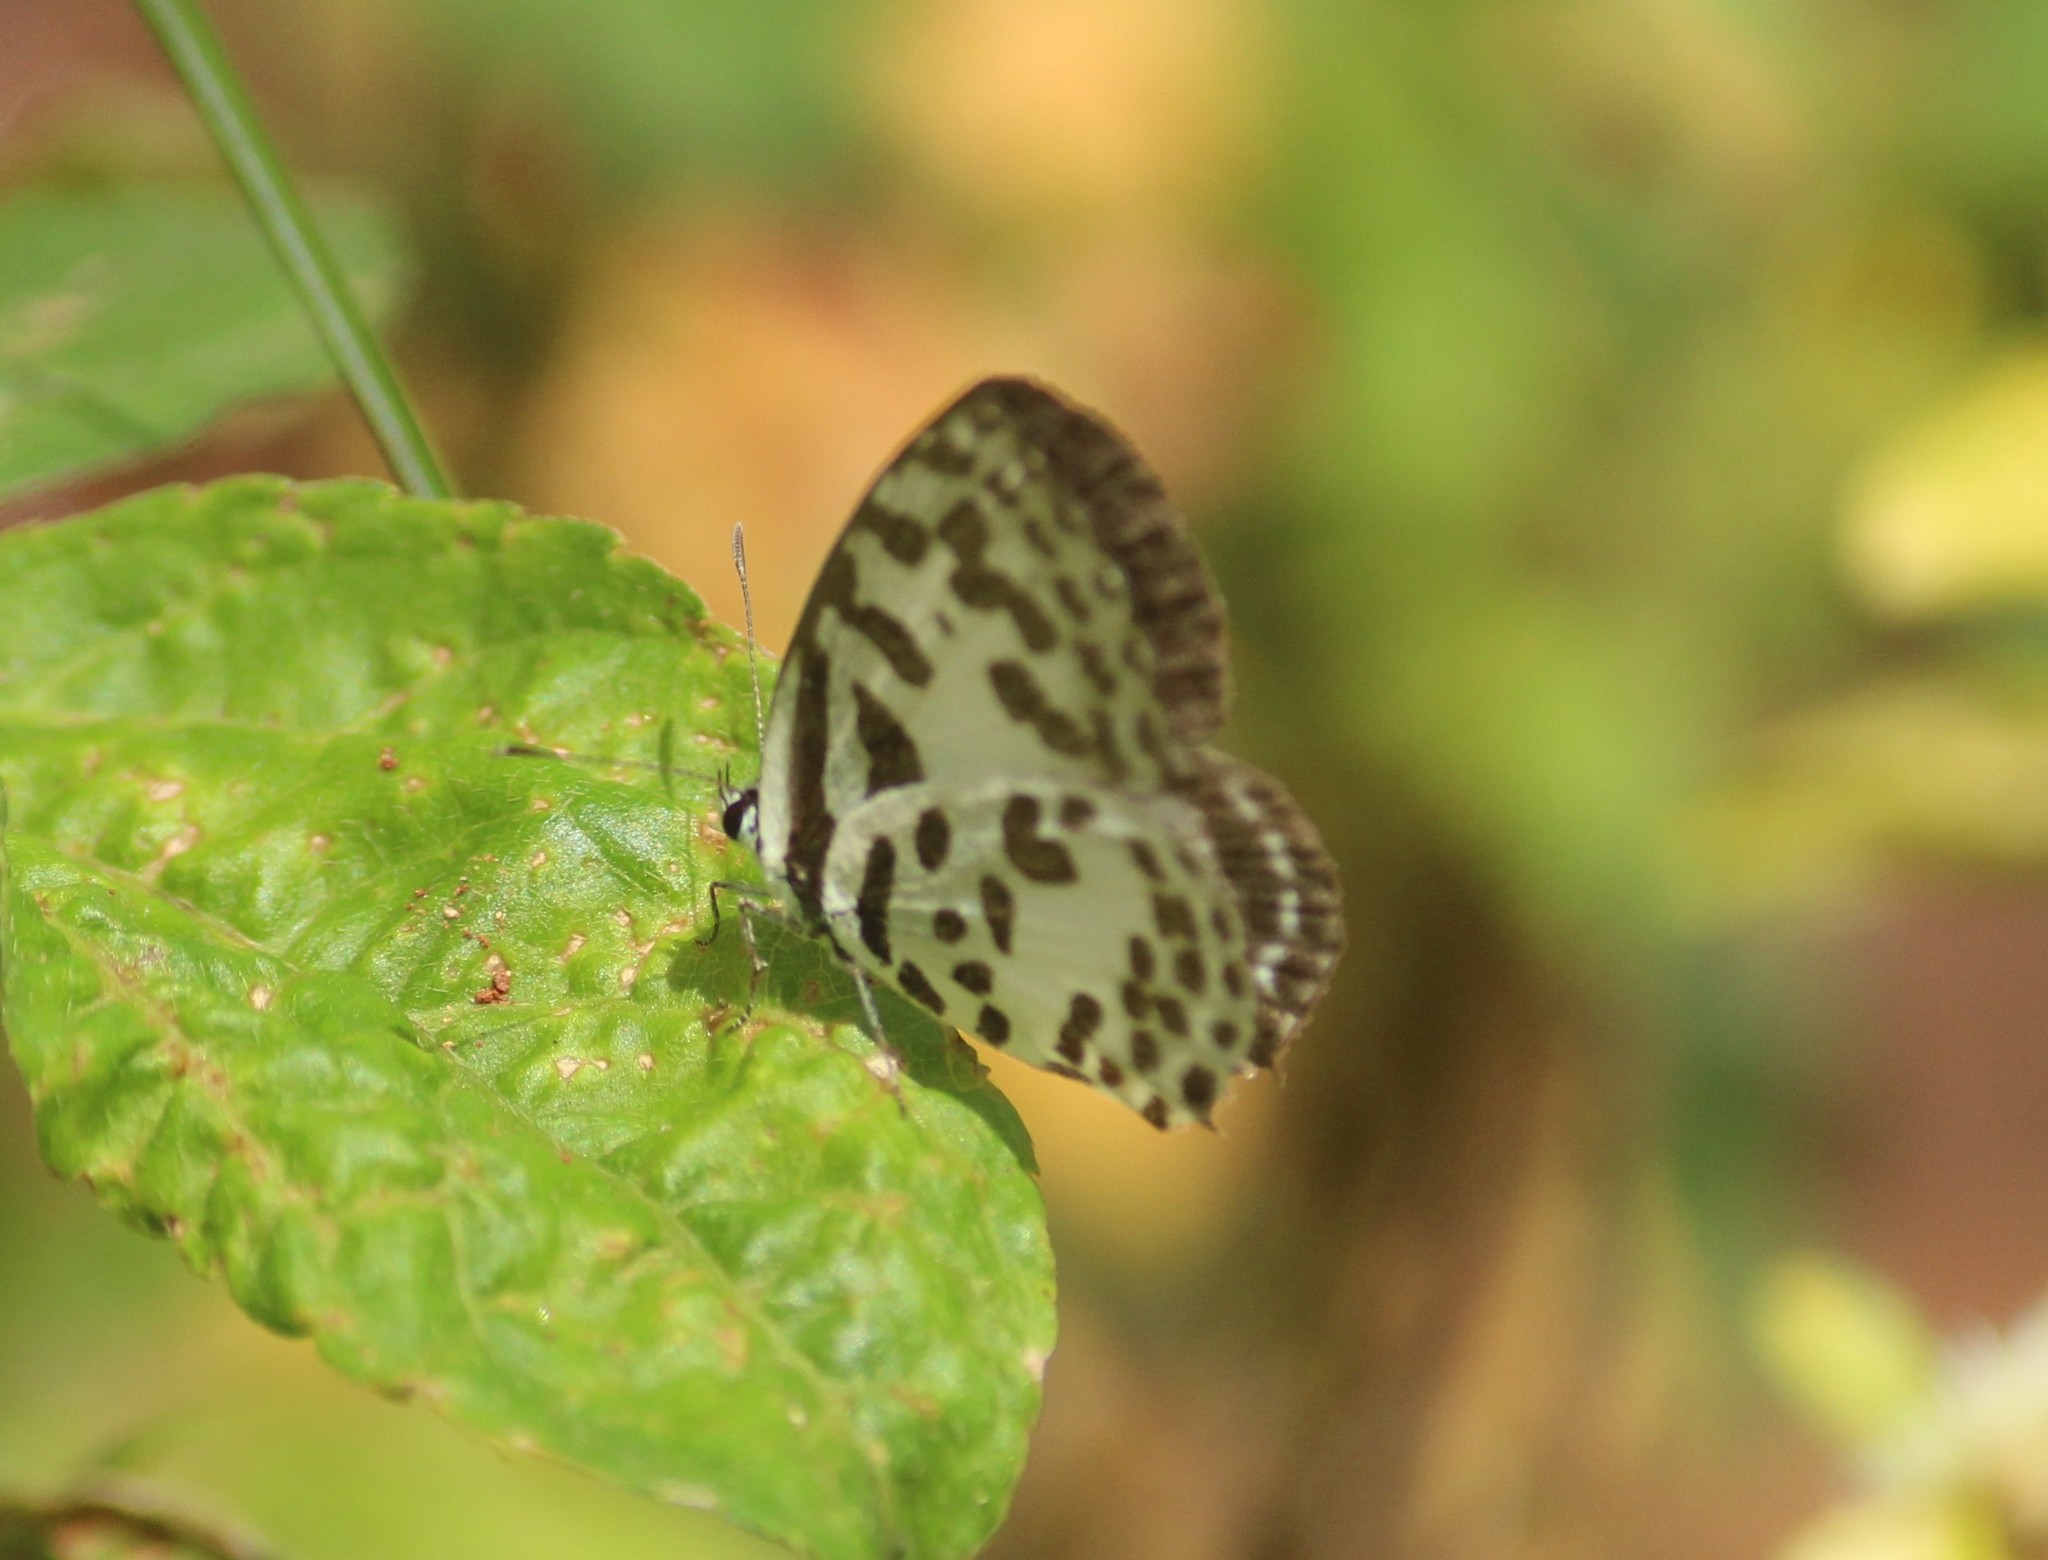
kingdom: Animalia
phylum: Arthropoda
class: Insecta
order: Lepidoptera
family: Lycaenidae
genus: Castalius
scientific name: Castalius rosimon
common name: Common pierrot
